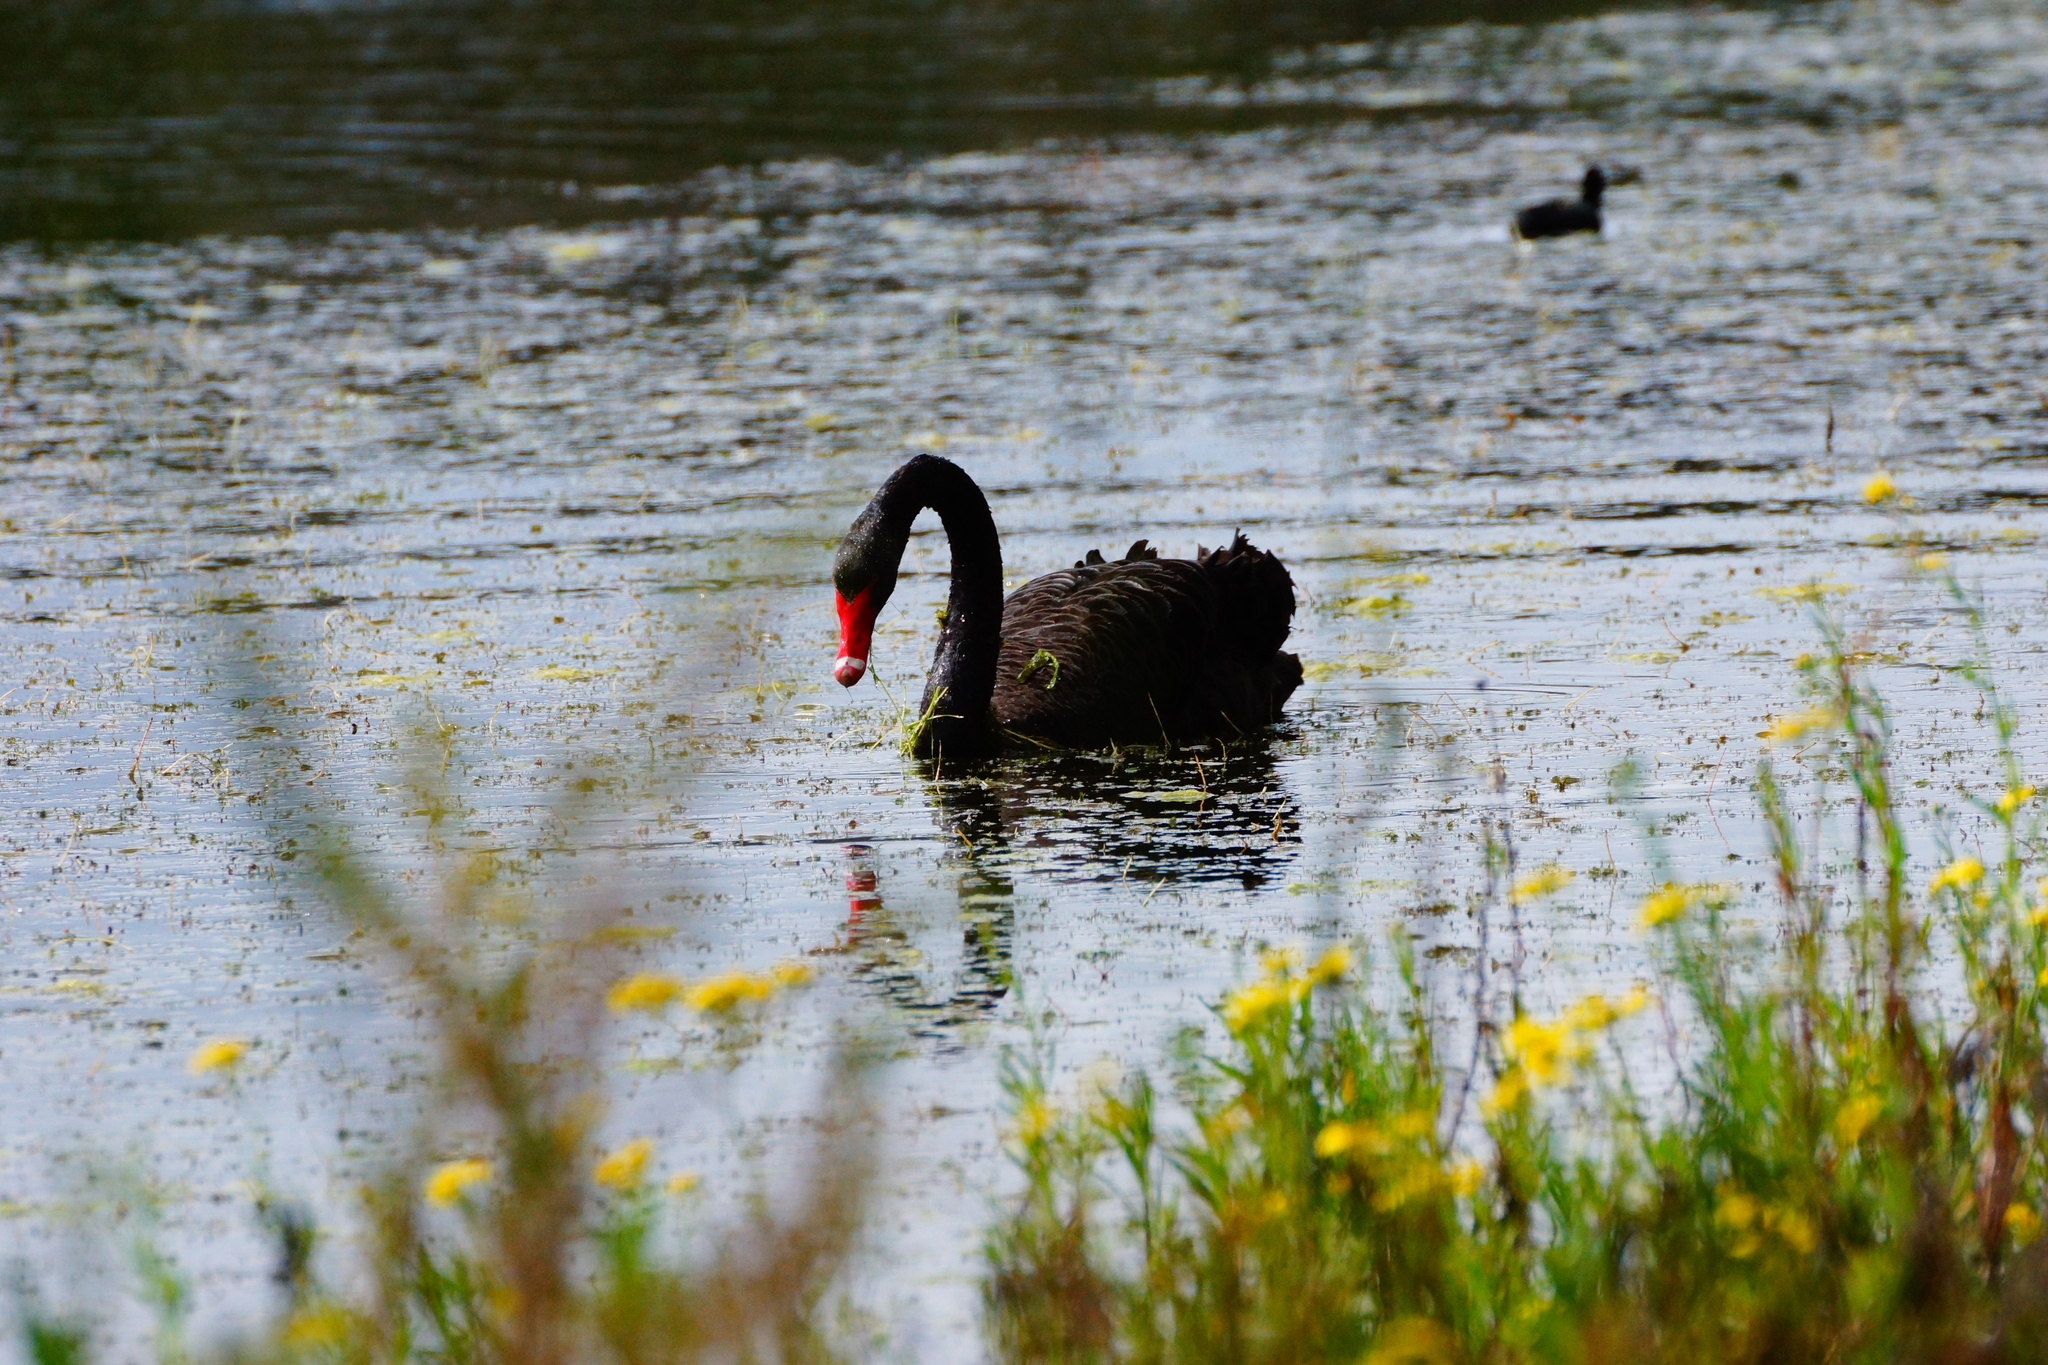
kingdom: Animalia
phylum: Chordata
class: Aves
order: Anseriformes
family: Anatidae
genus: Cygnus
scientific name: Cygnus atratus
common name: Black swan
